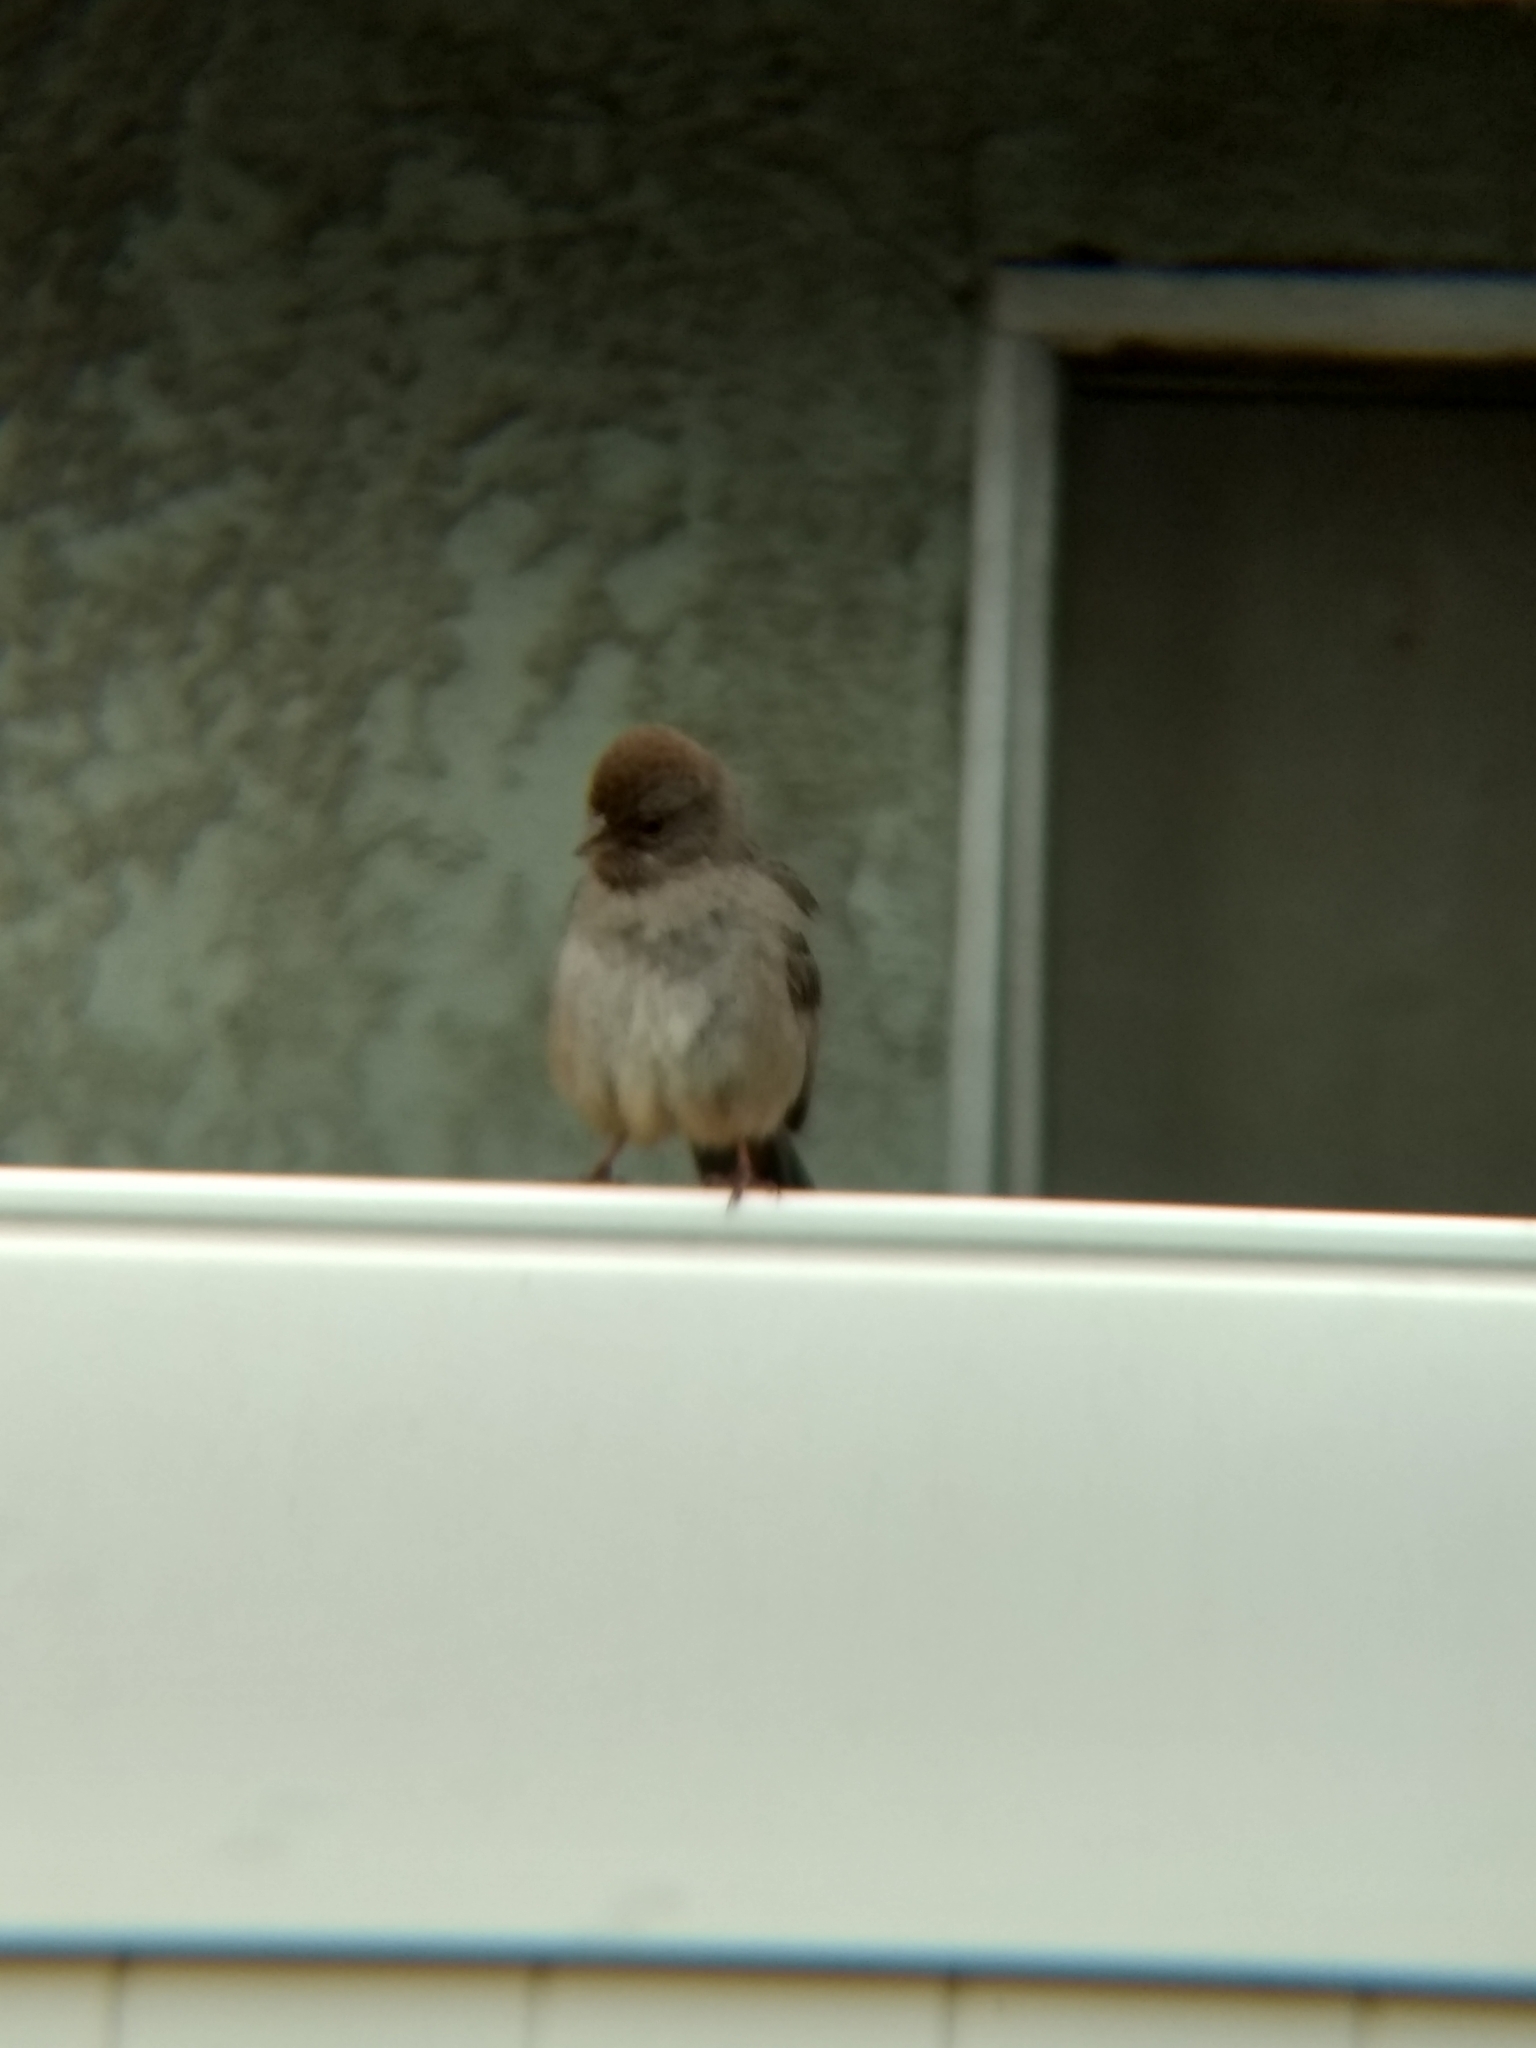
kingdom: Animalia
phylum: Chordata
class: Aves
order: Passeriformes
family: Passerellidae
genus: Melozone
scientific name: Melozone crissalis
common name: California towhee
